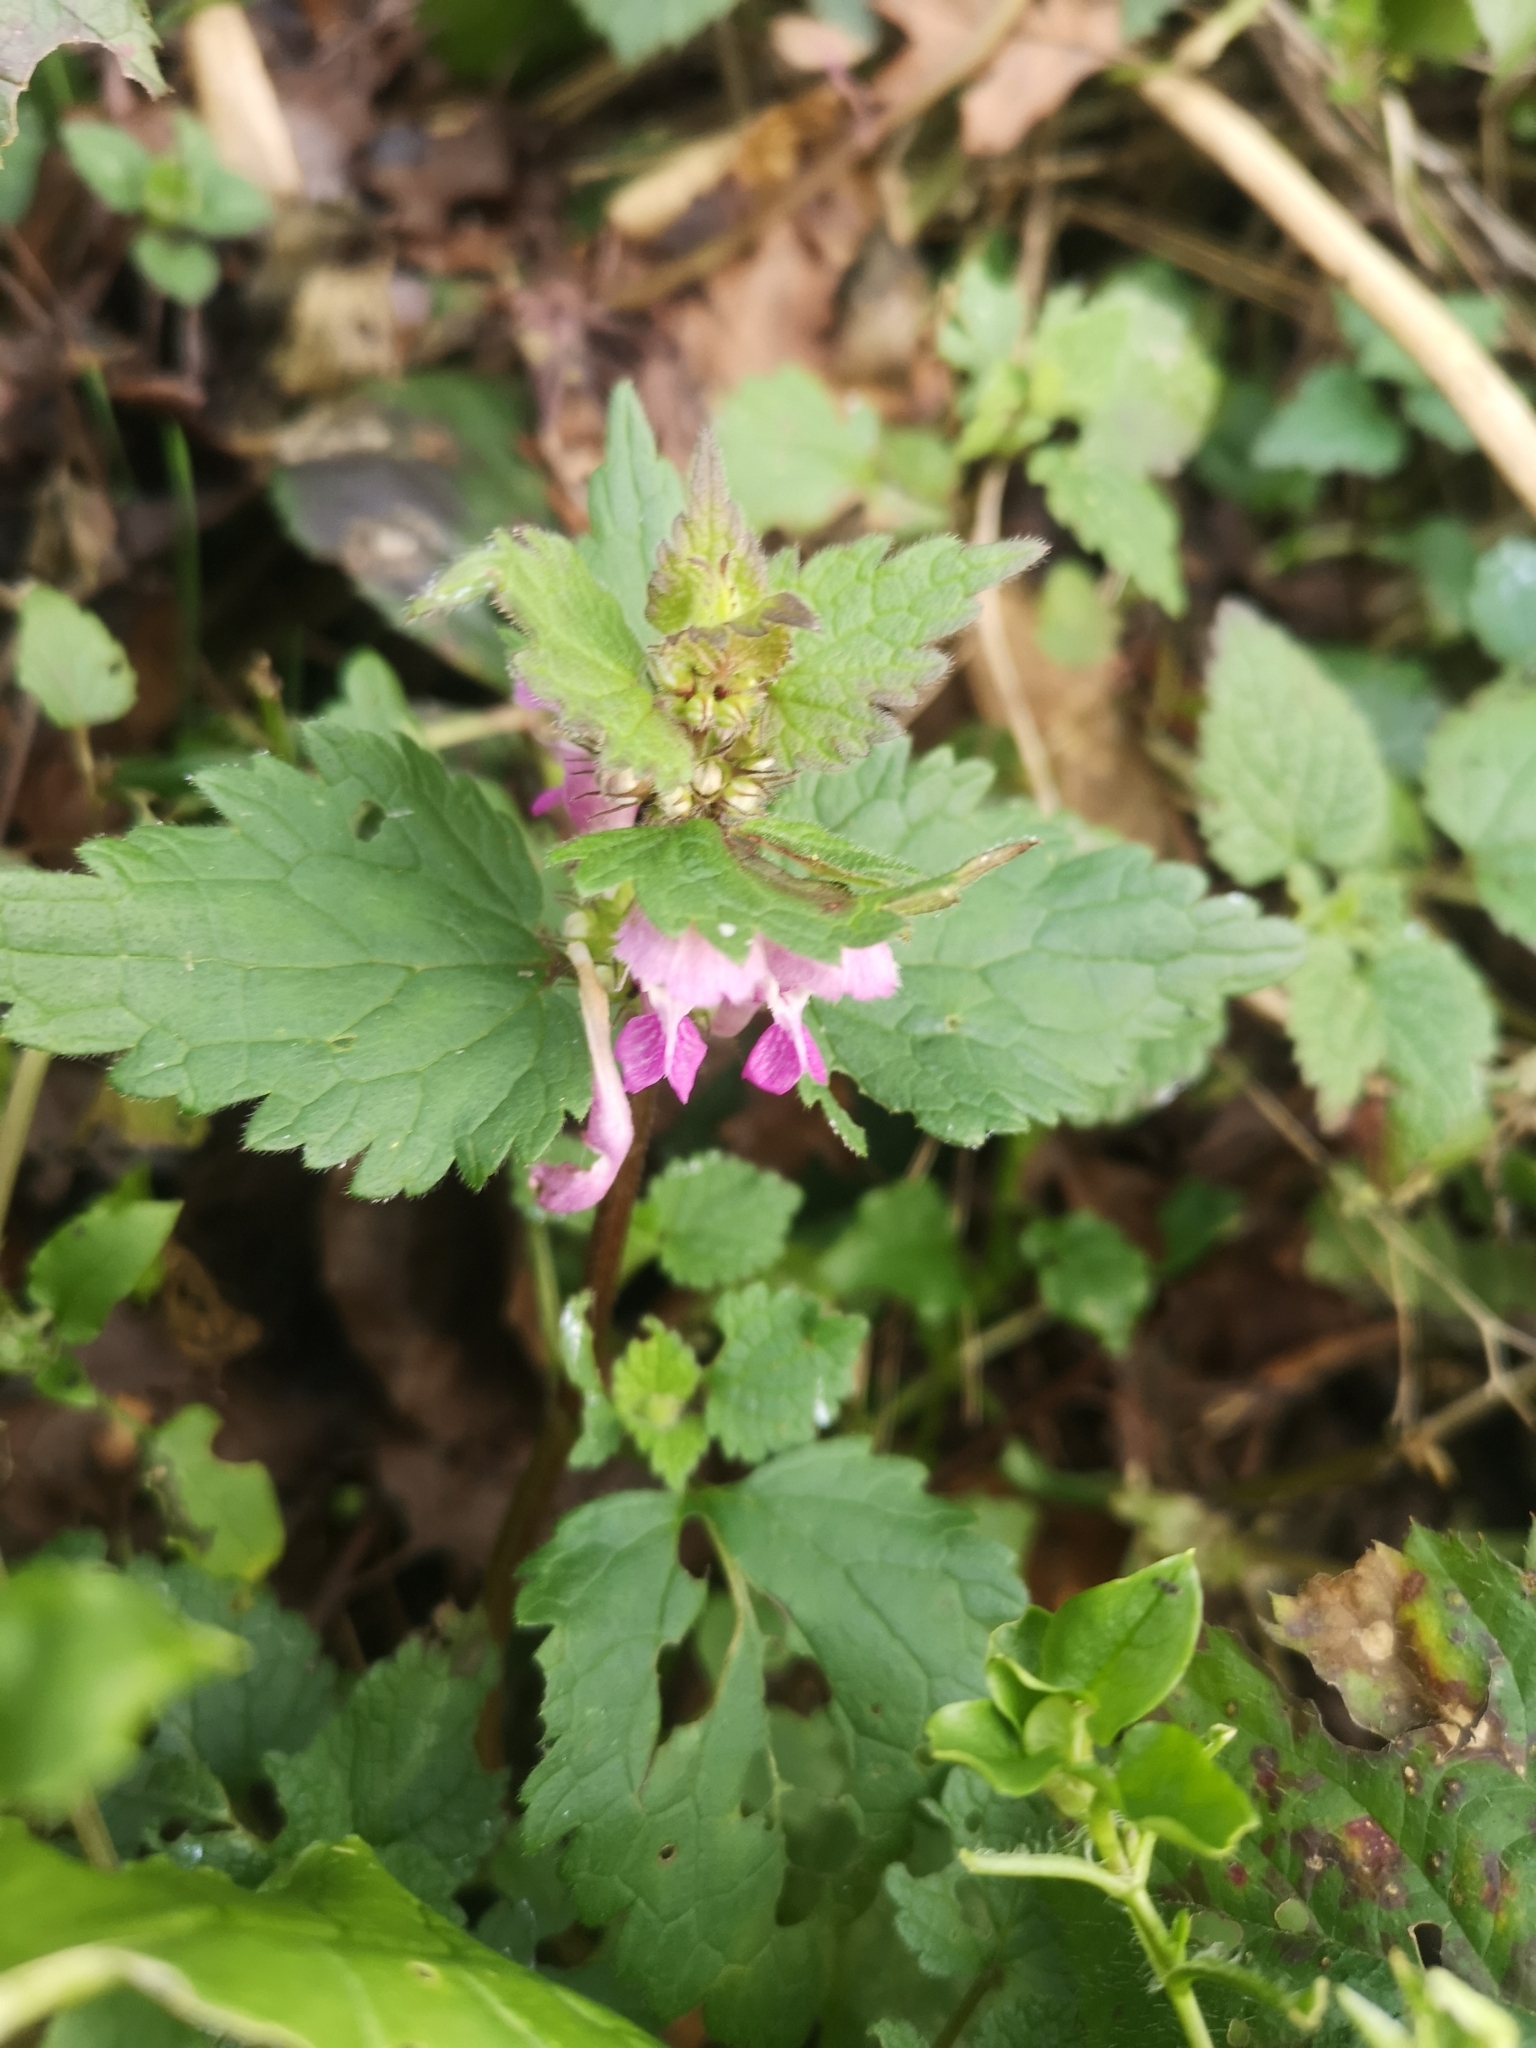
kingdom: Plantae
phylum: Tracheophyta
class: Magnoliopsida
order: Lamiales
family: Lamiaceae
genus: Lamium
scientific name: Lamium maculatum
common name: Spotted dead-nettle
